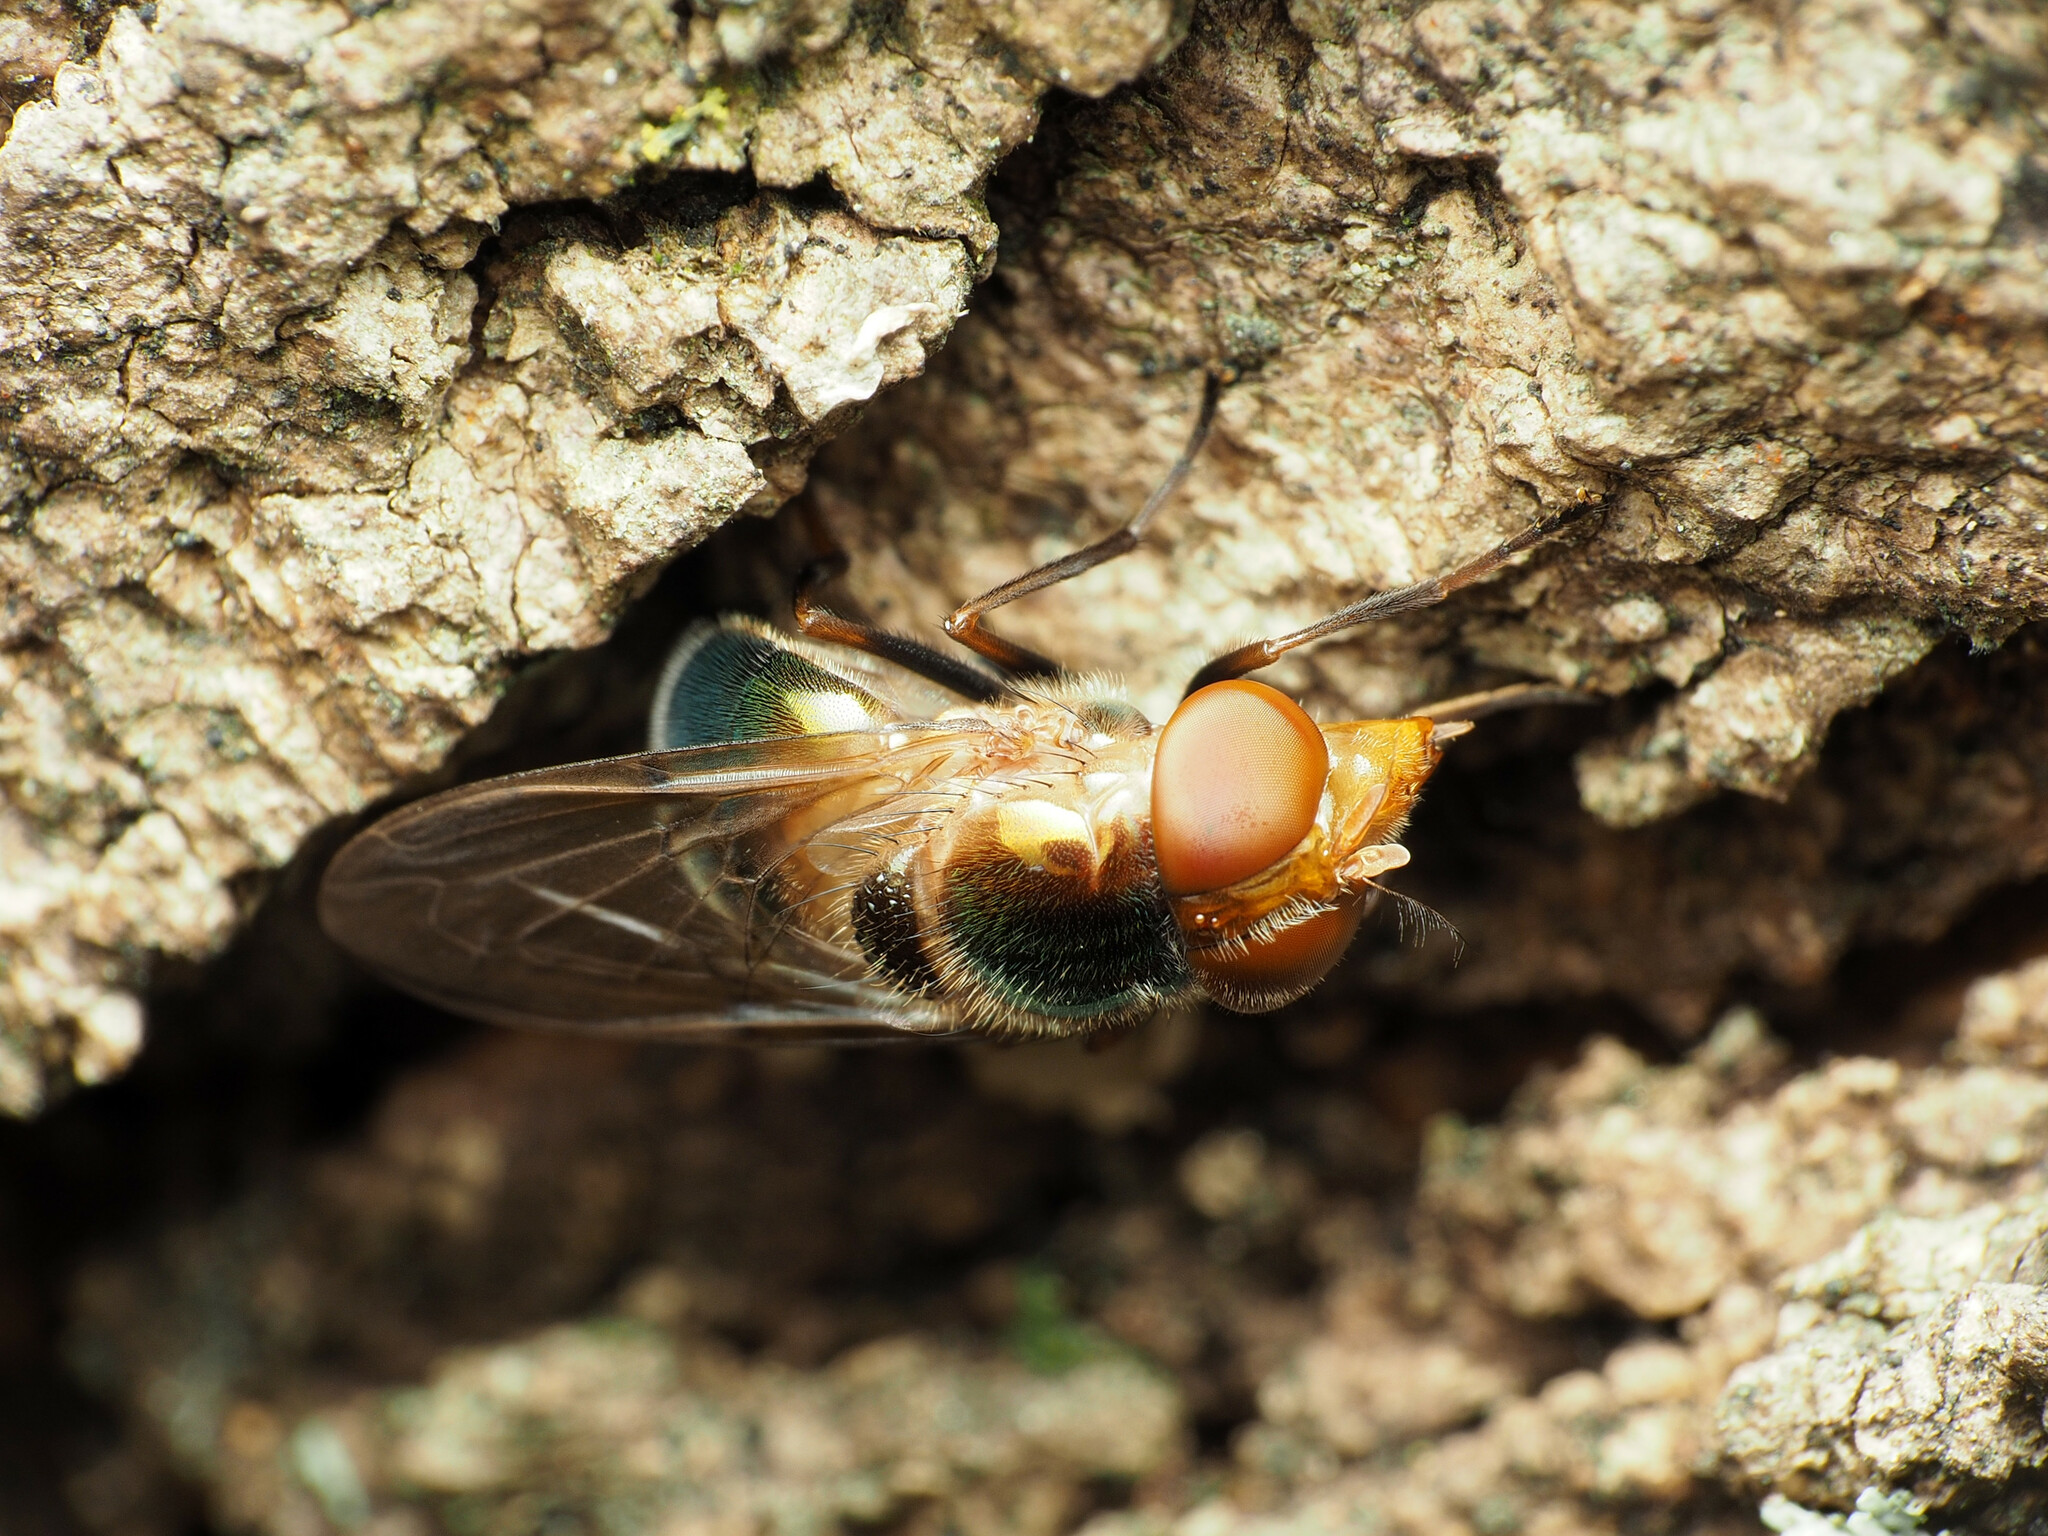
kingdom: Animalia
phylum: Arthropoda
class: Insecta
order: Diptera
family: Syrphidae
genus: Copestylum
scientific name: Copestylum vesicularium
